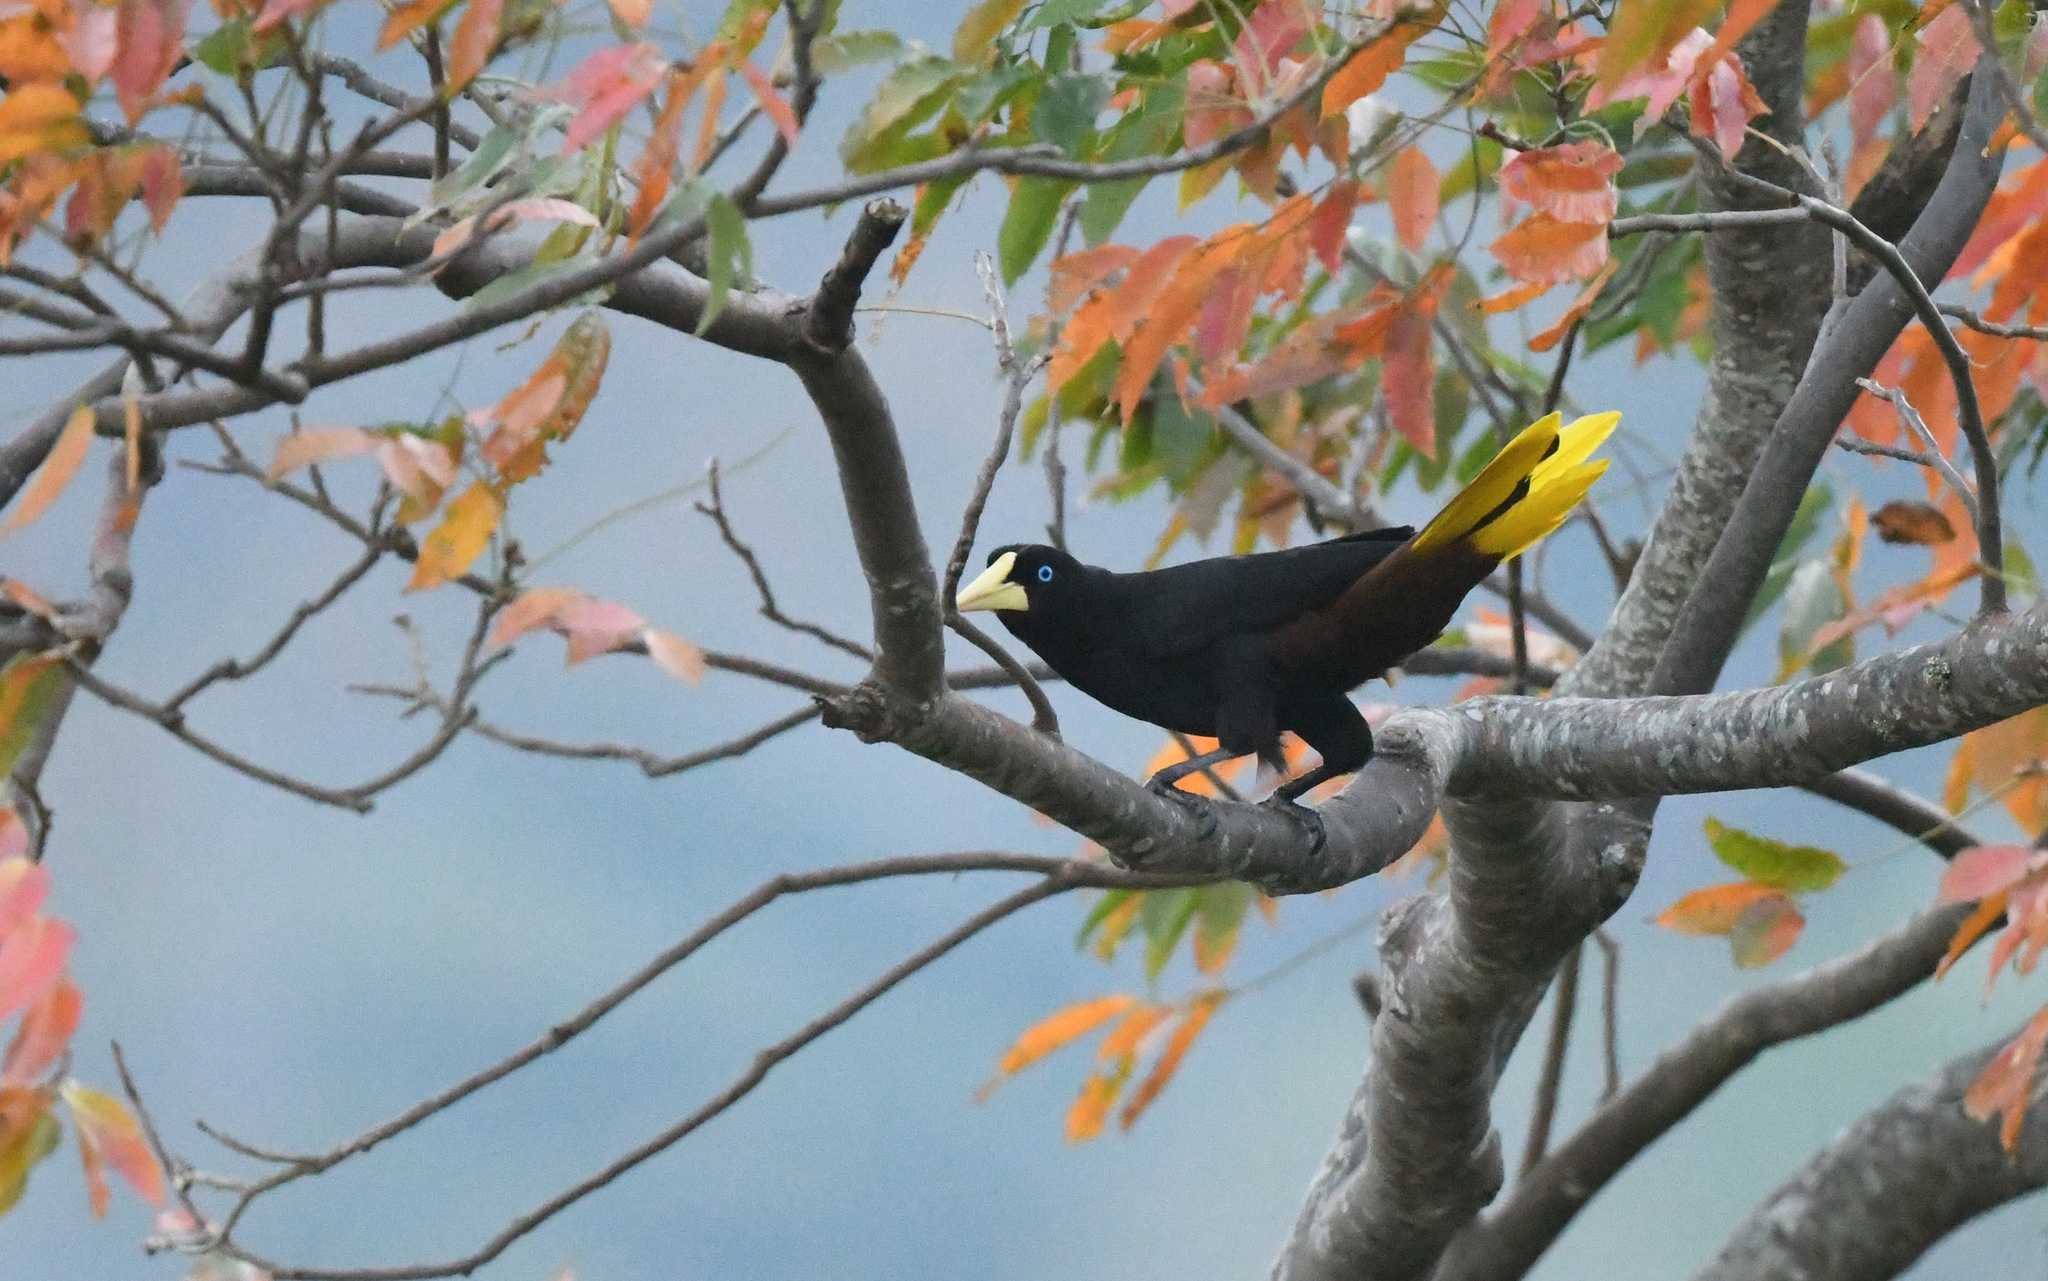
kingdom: Animalia
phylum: Chordata
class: Aves
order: Passeriformes
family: Icteridae
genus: Psarocolius
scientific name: Psarocolius decumanus
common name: Crested oropendola
